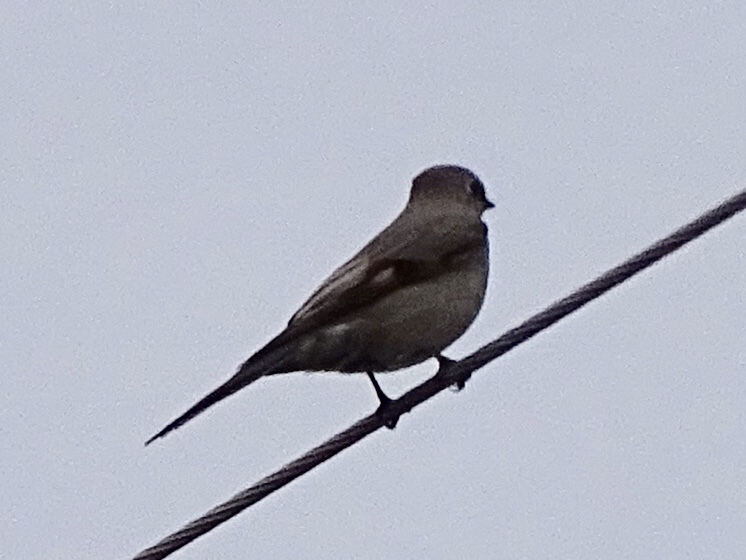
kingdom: Animalia
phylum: Chordata
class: Aves
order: Passeriformes
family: Turdidae
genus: Myadestes
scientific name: Myadestes townsendi
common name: Townsend's solitaire
